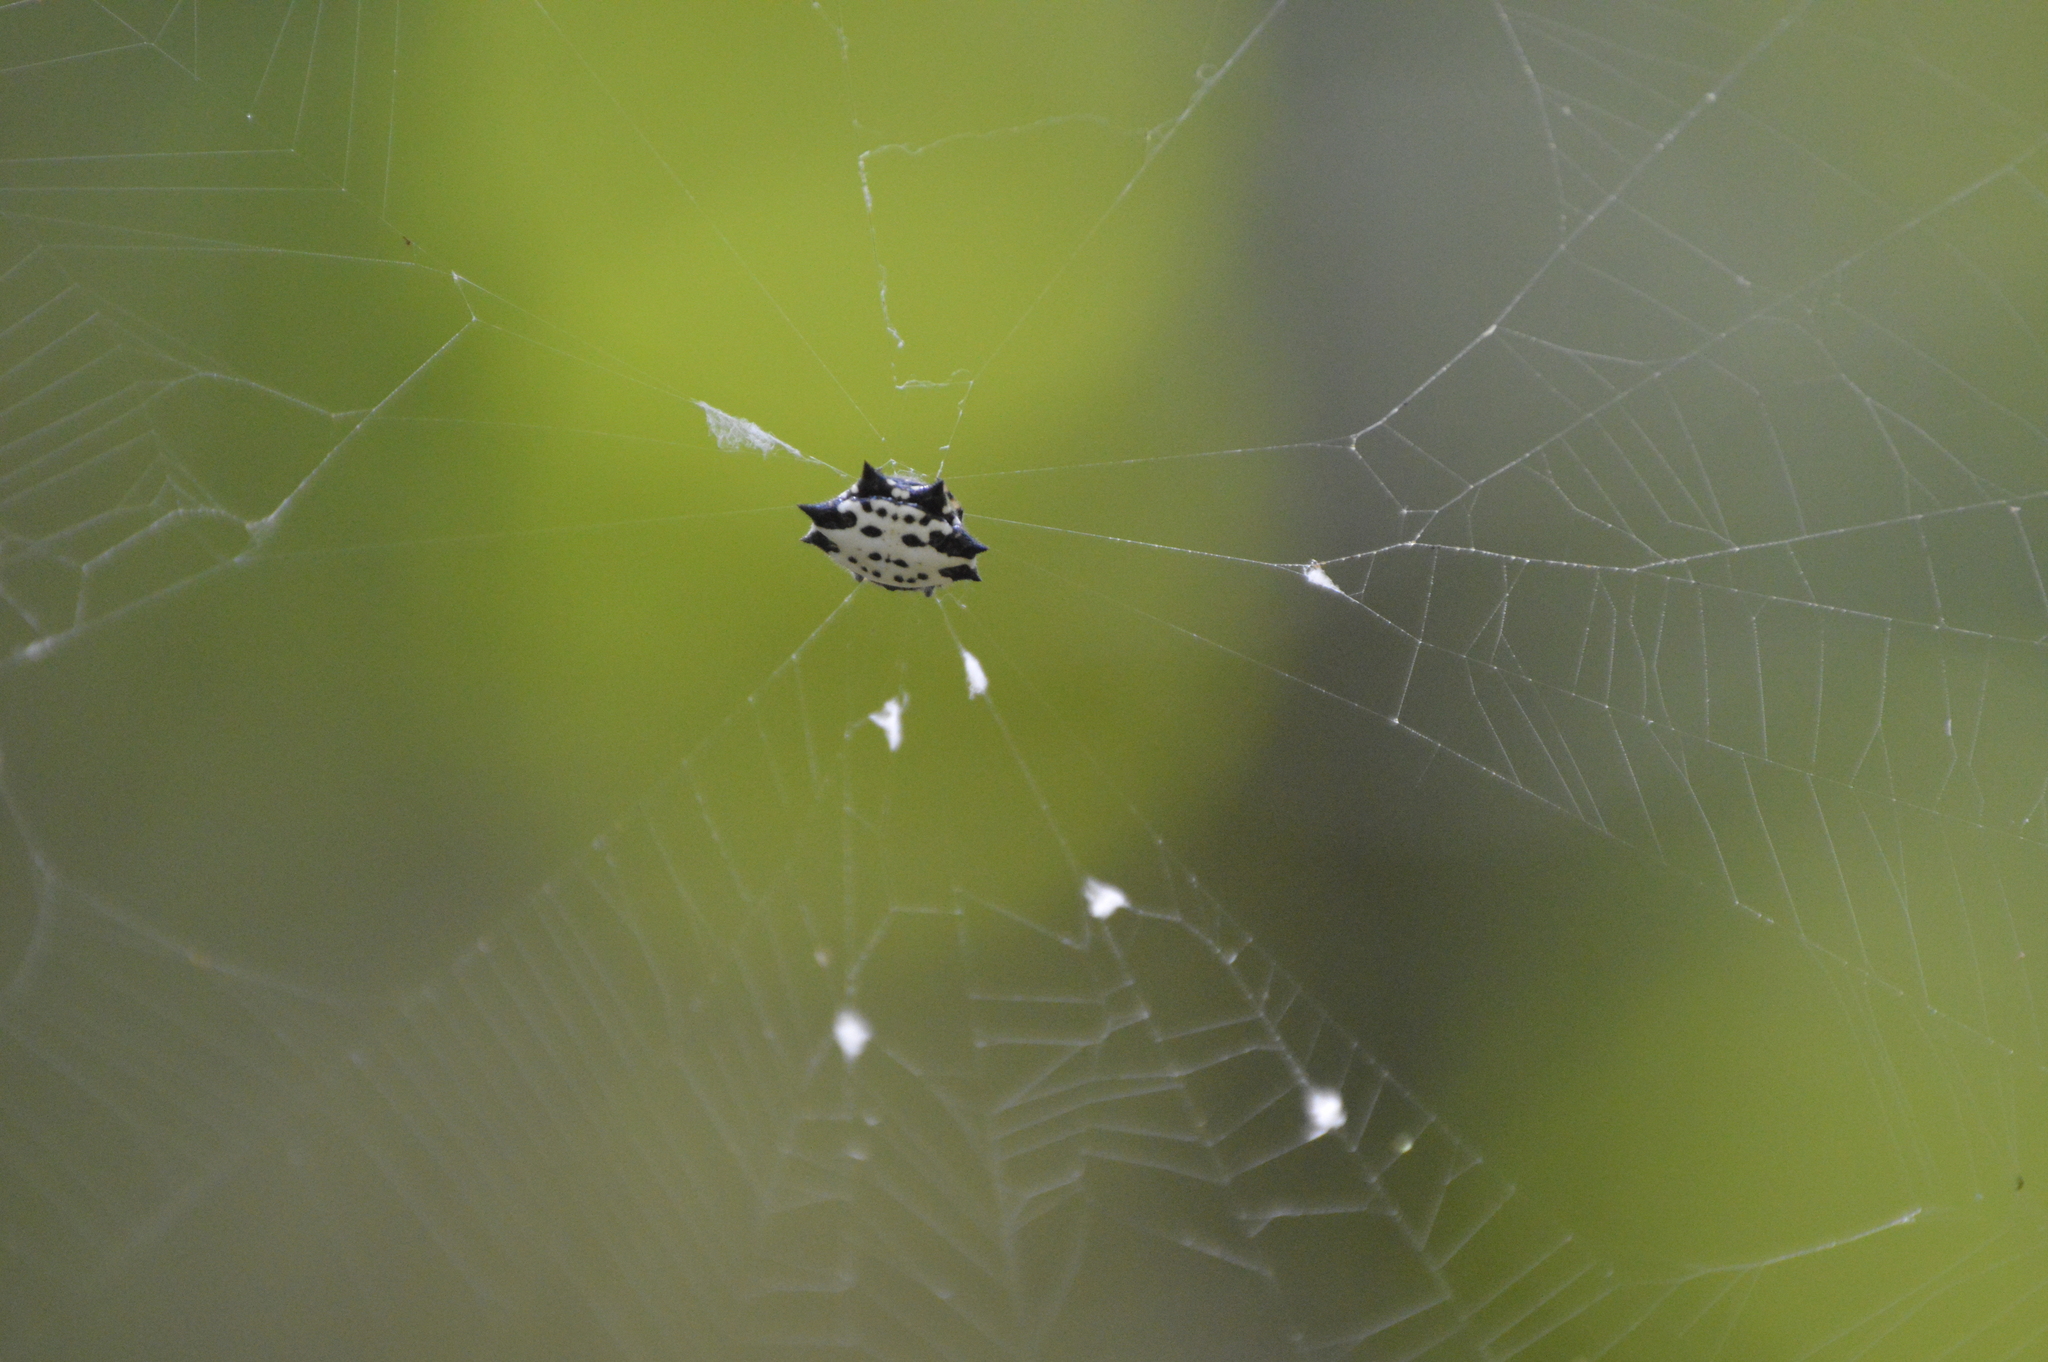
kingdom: Animalia
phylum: Arthropoda
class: Arachnida
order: Araneae
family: Araneidae
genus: Gasteracantha
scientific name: Gasteracantha cancriformis
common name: Orb weavers
